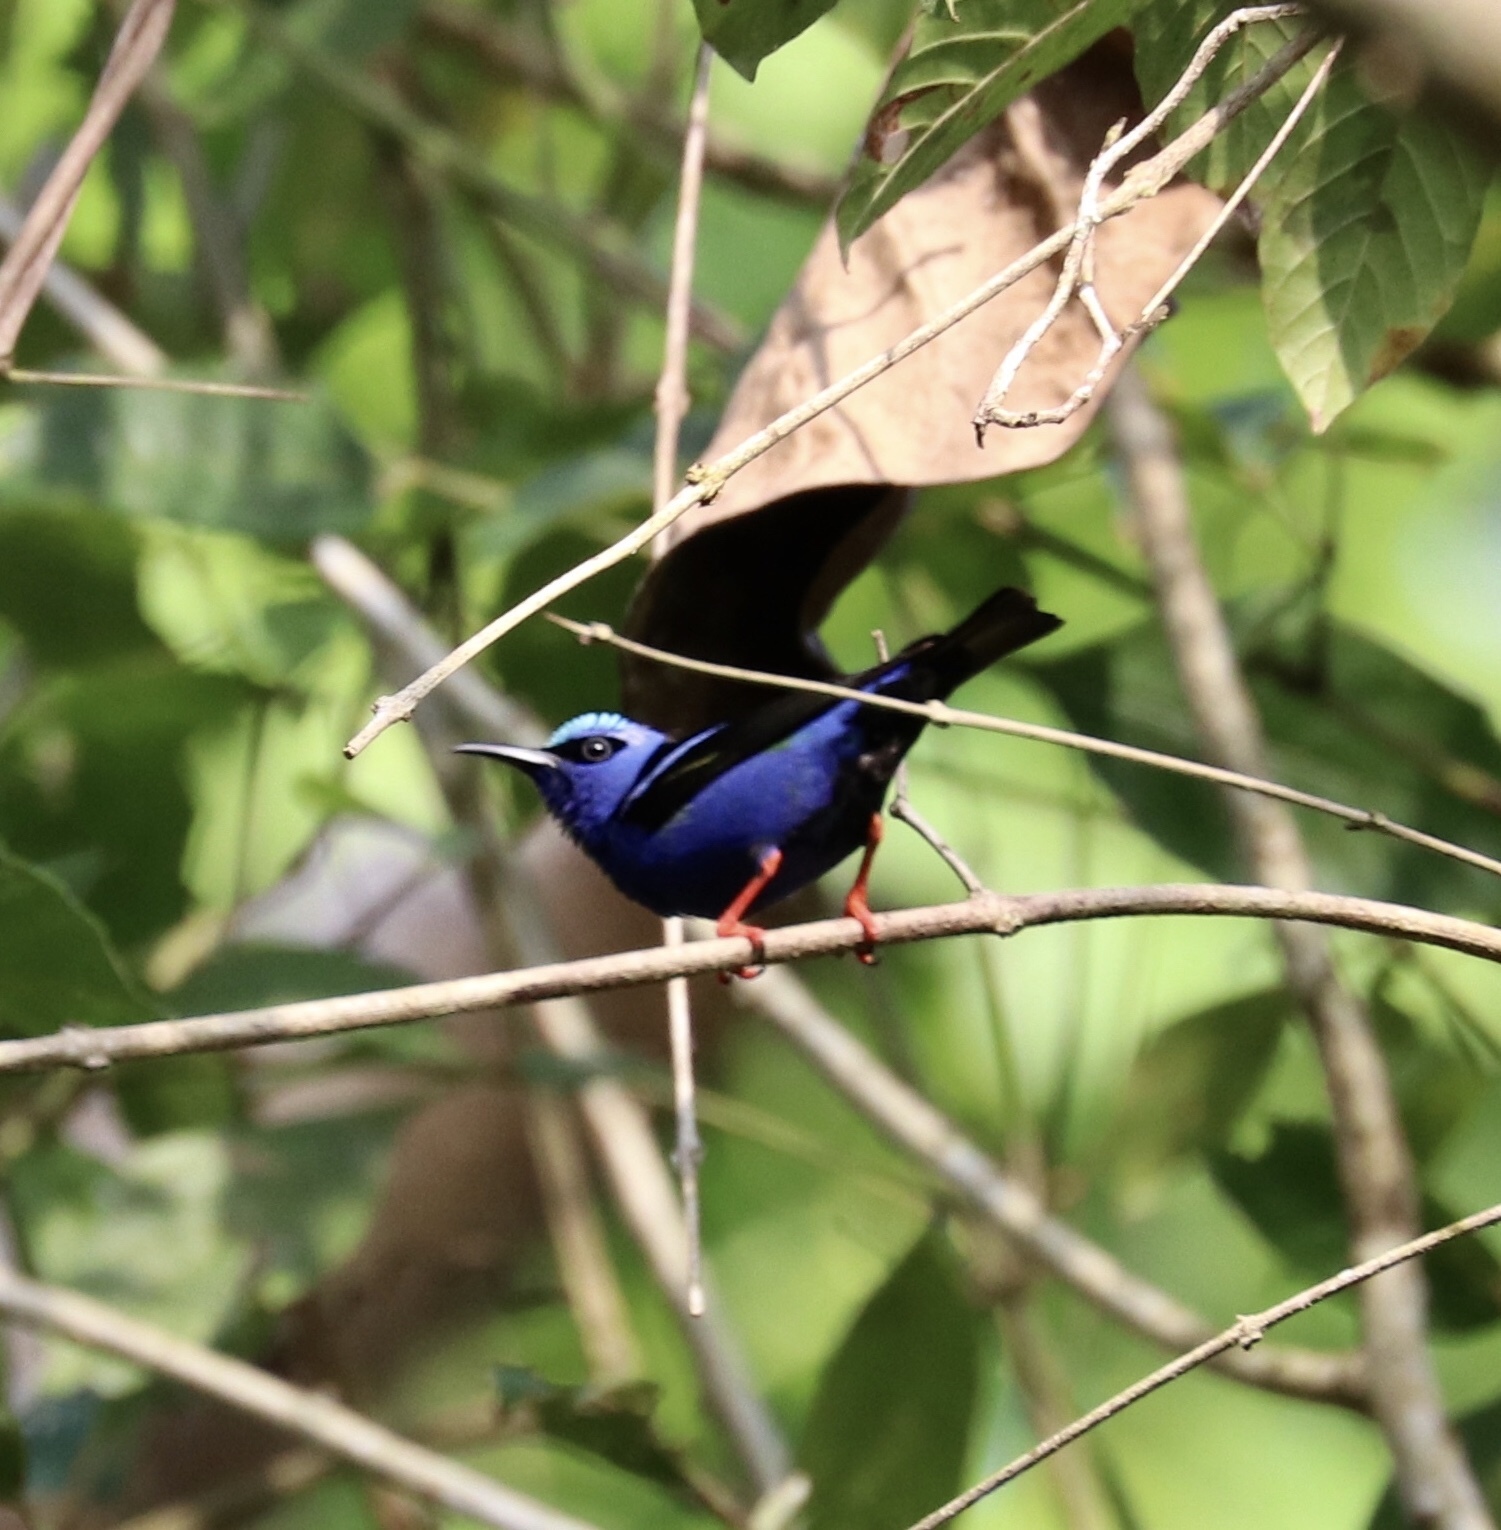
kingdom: Animalia
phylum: Chordata
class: Aves
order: Passeriformes
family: Thraupidae
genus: Cyanerpes
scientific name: Cyanerpes cyaneus
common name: Red-legged honeycreeper
